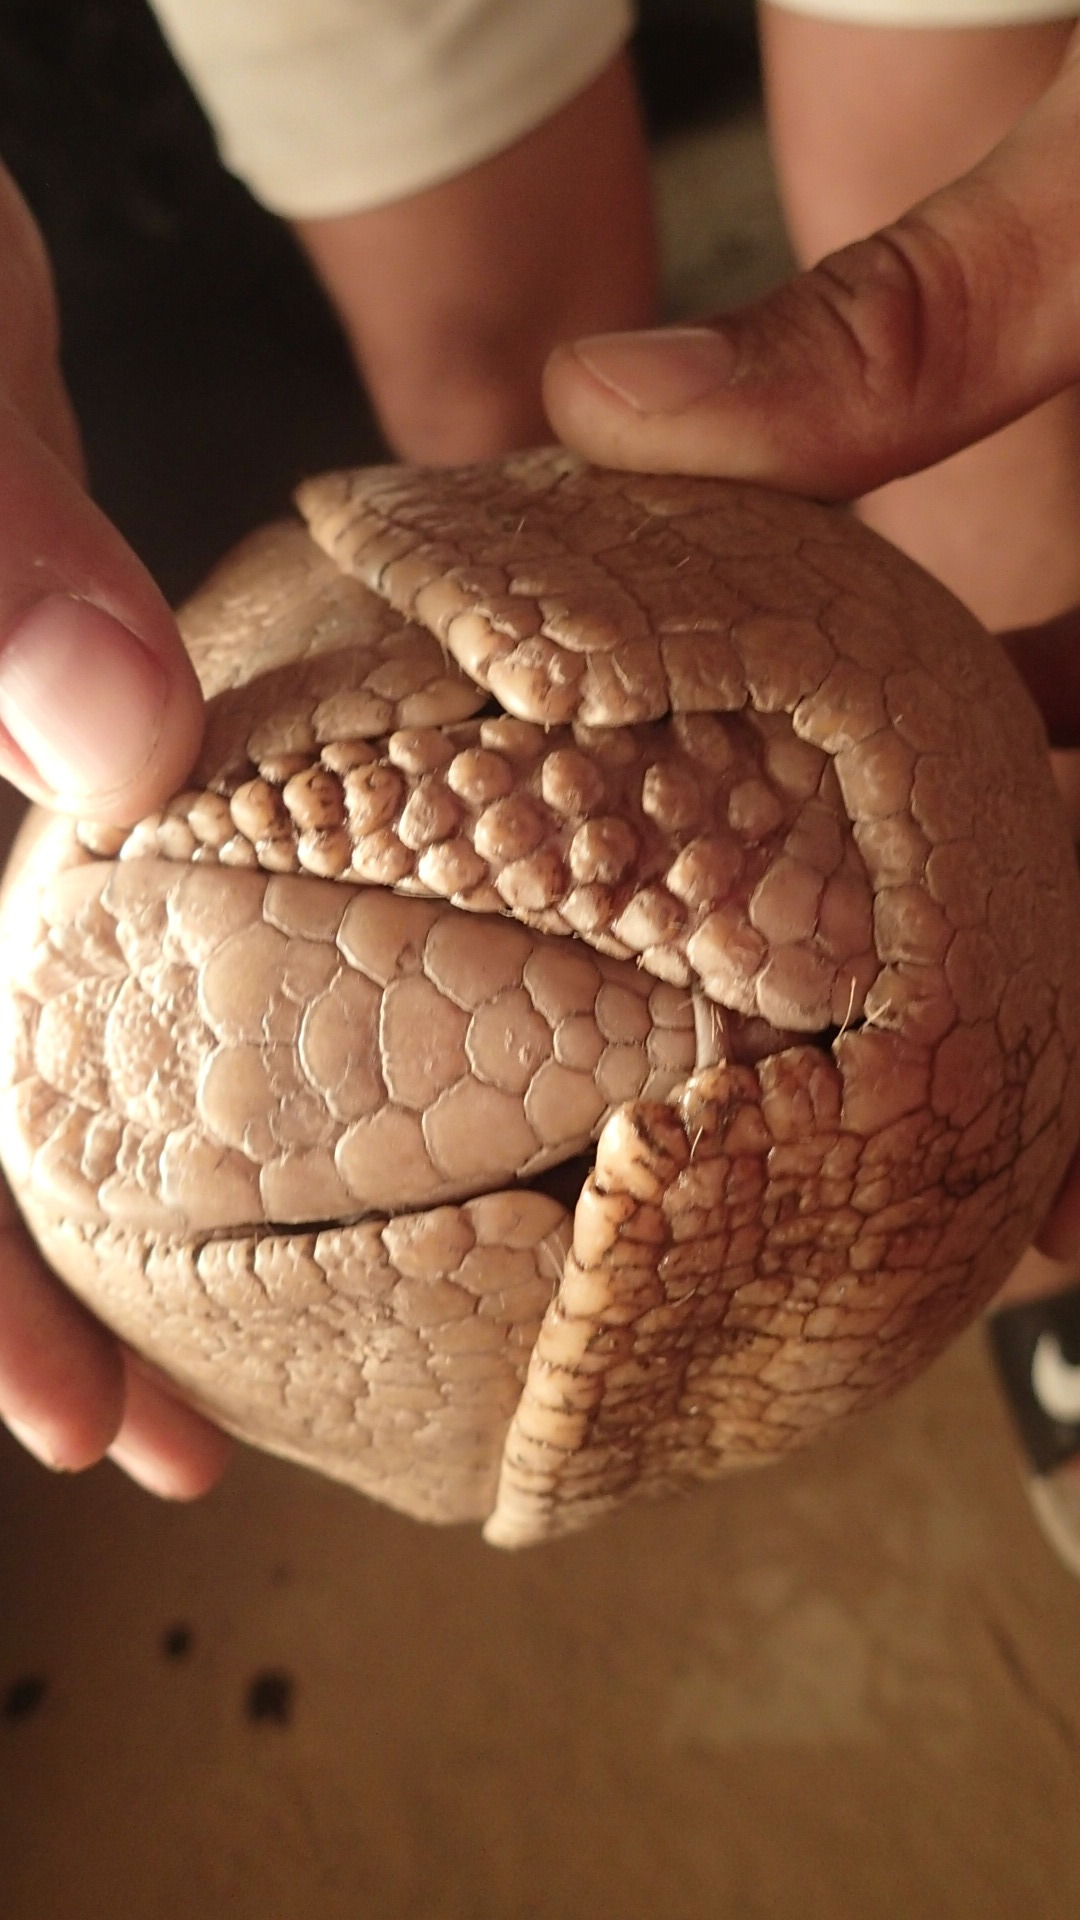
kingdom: Animalia
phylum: Chordata
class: Mammalia
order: Cingulata
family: Dasypodidae
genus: Tolypeutes
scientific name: Tolypeutes matacus
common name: Southern three-banded armadillo
